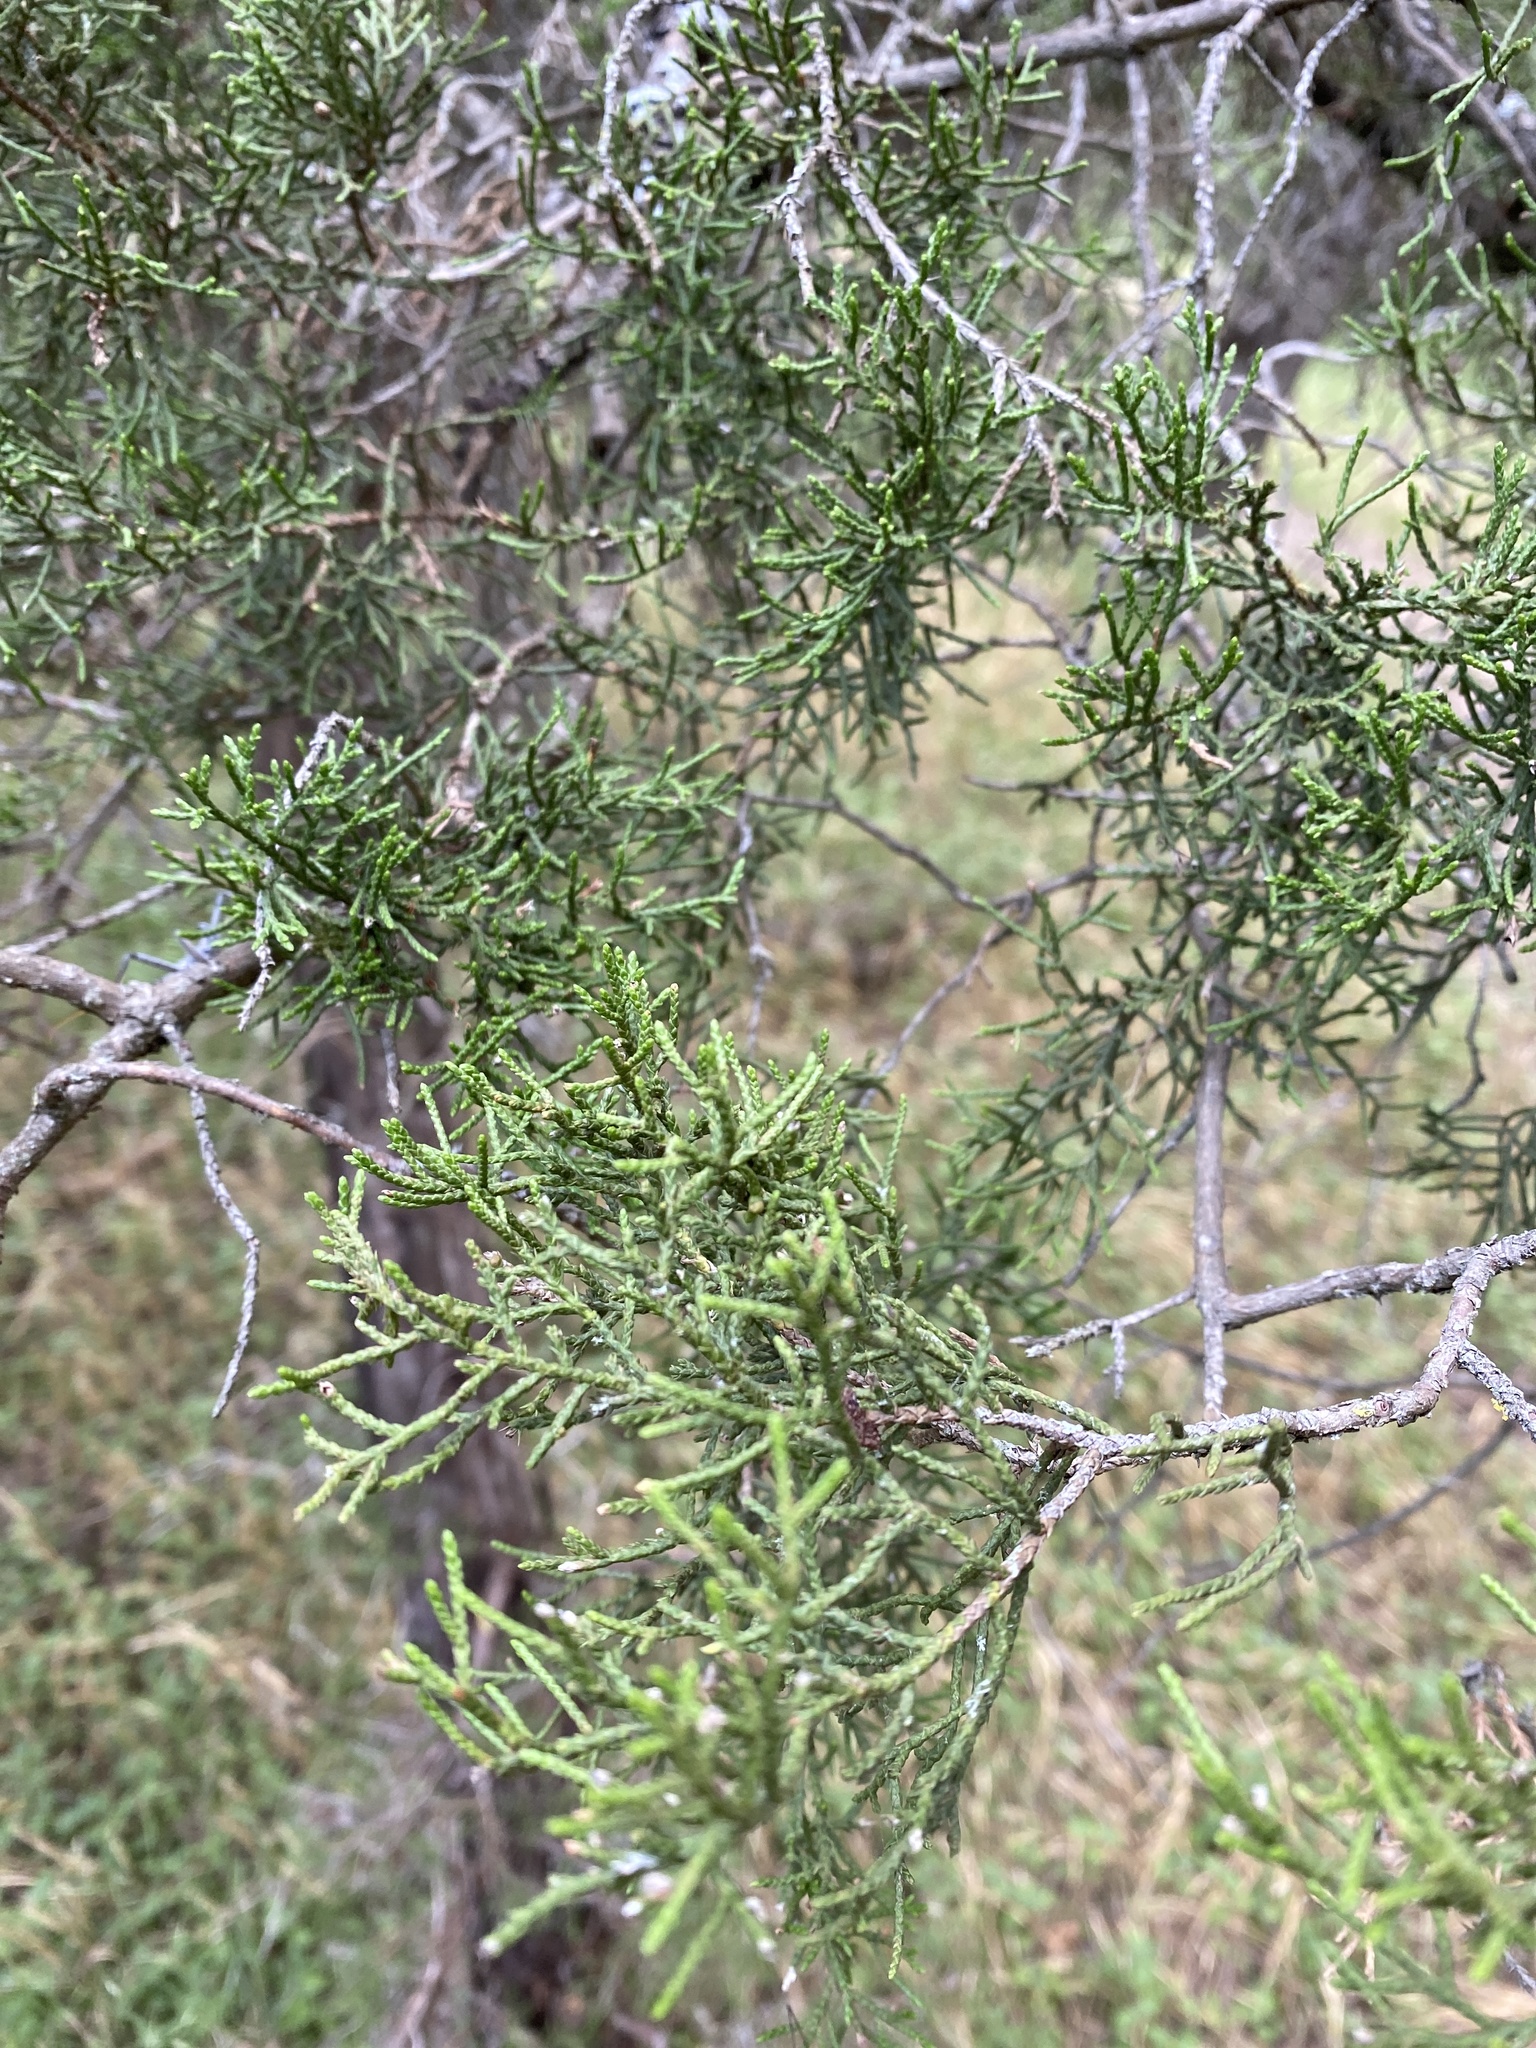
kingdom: Plantae
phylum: Tracheophyta
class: Pinopsida
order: Pinales
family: Cupressaceae
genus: Juniperus
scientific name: Juniperus ashei
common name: Mexican juniper
